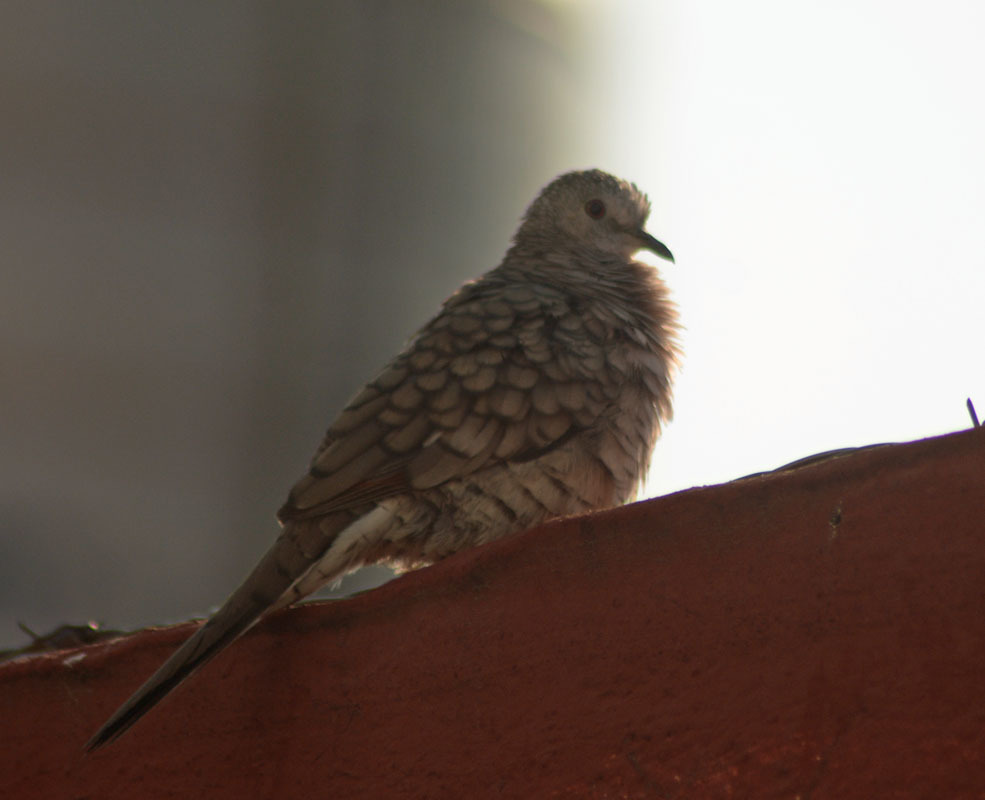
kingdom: Animalia
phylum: Chordata
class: Aves
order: Columbiformes
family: Columbidae
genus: Columbina
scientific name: Columbina inca
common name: Inca dove
